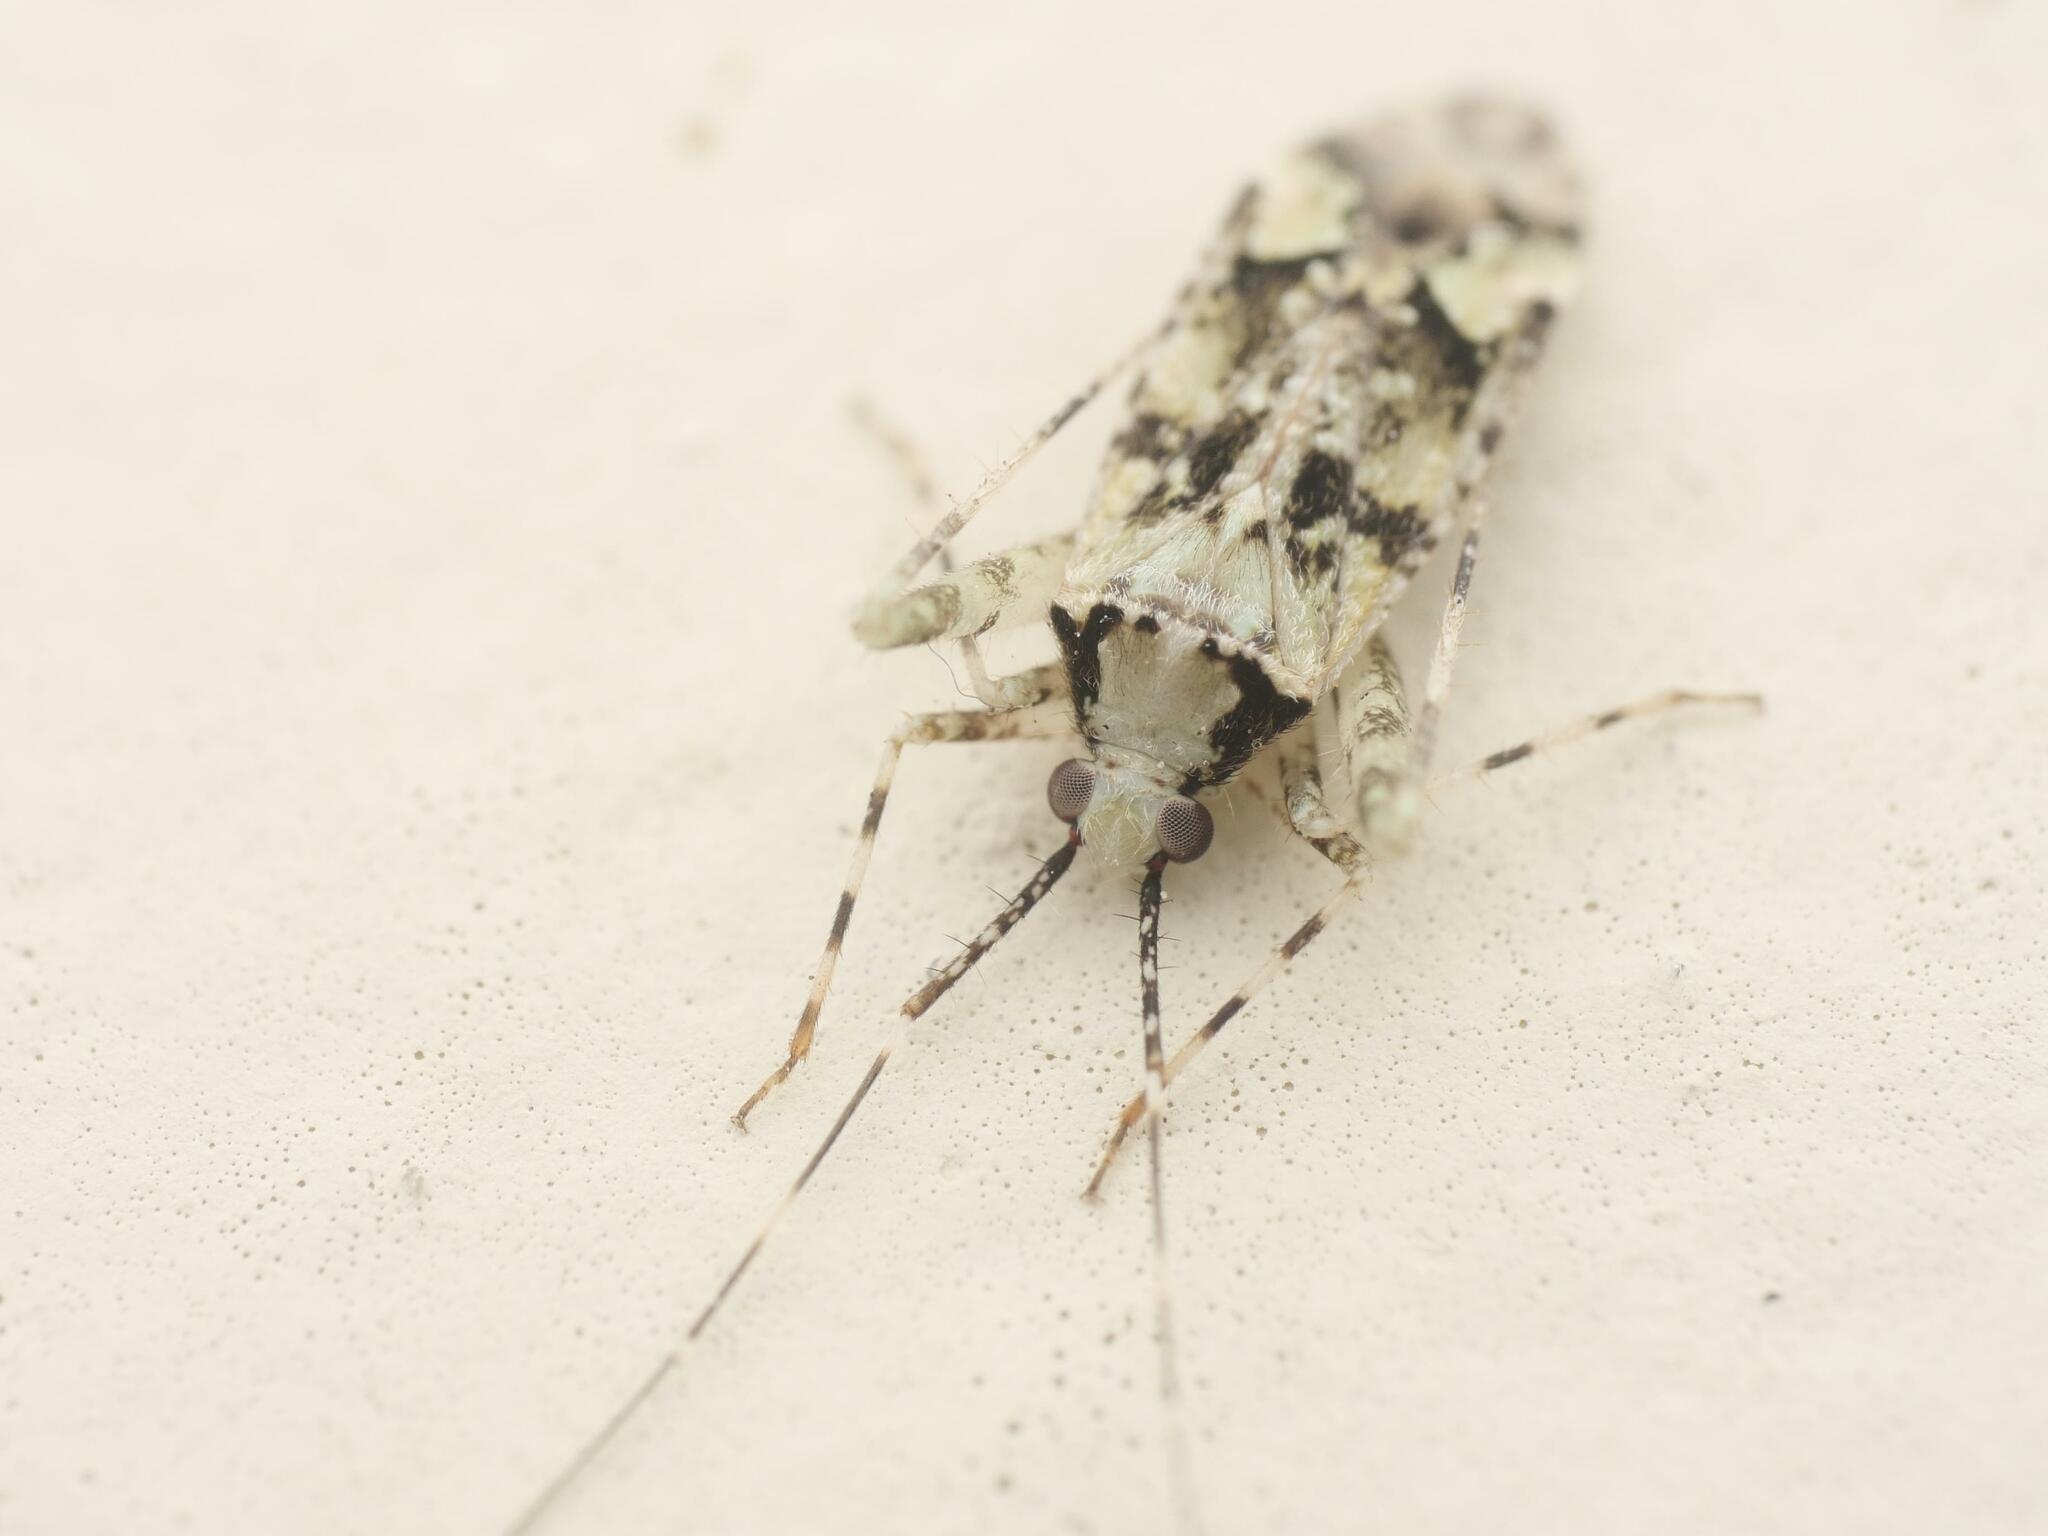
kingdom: Animalia
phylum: Arthropoda
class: Insecta
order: Hemiptera
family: Miridae
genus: Phytocoris
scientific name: Phytocoris tiliae
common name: Plant bug
